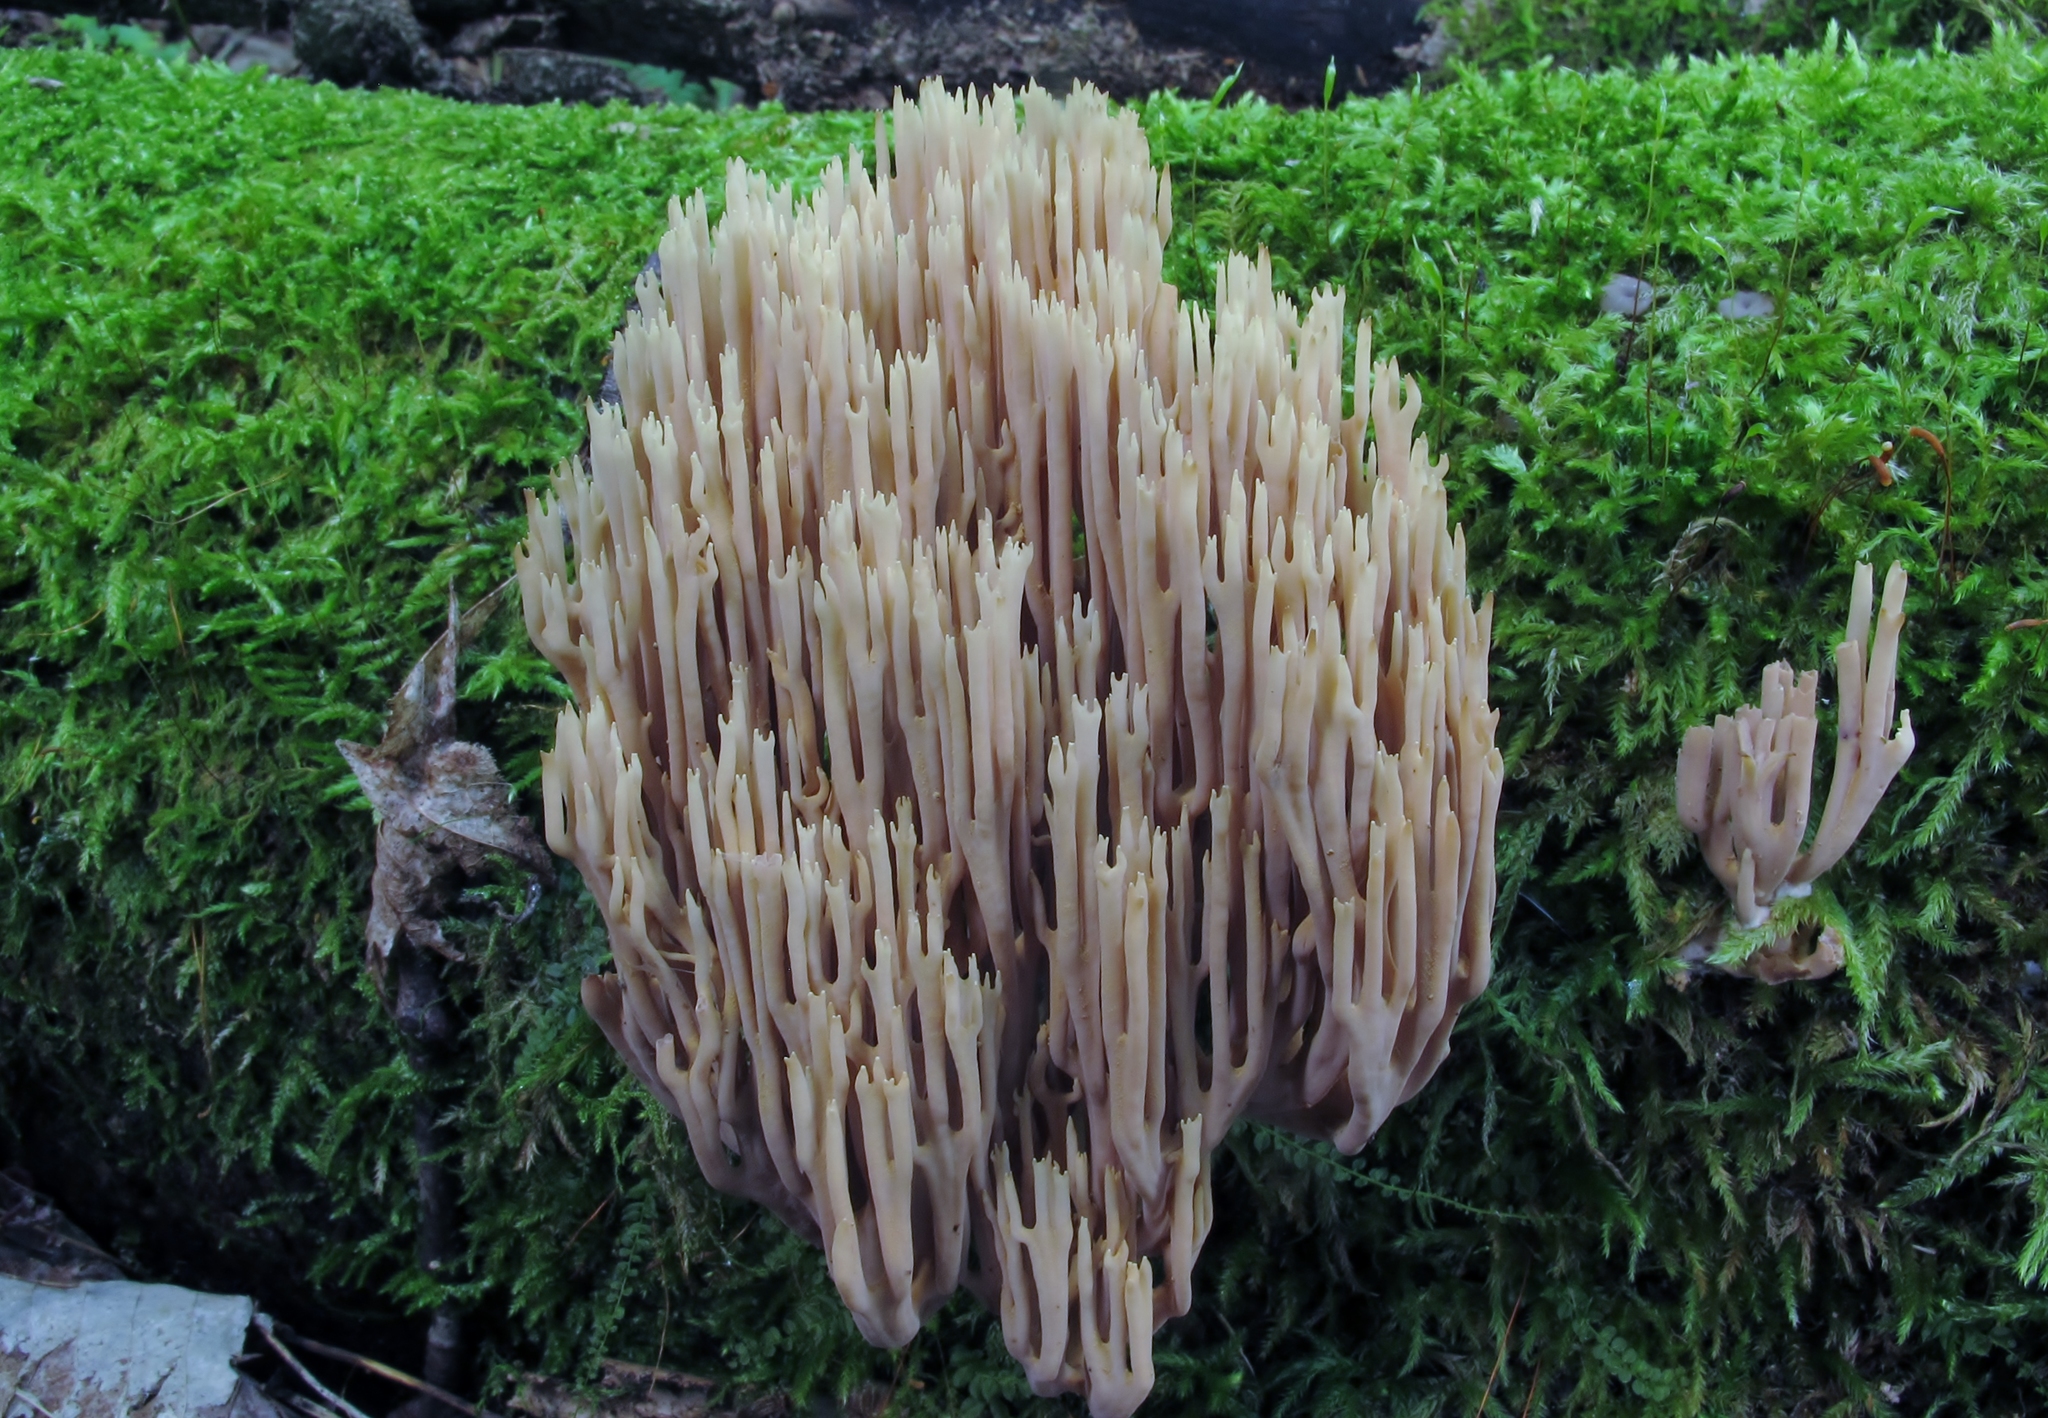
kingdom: Fungi
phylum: Basidiomycota
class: Agaricomycetes
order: Gomphales
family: Gomphaceae
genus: Ramaria
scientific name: Ramaria stricta
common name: Upright coral
